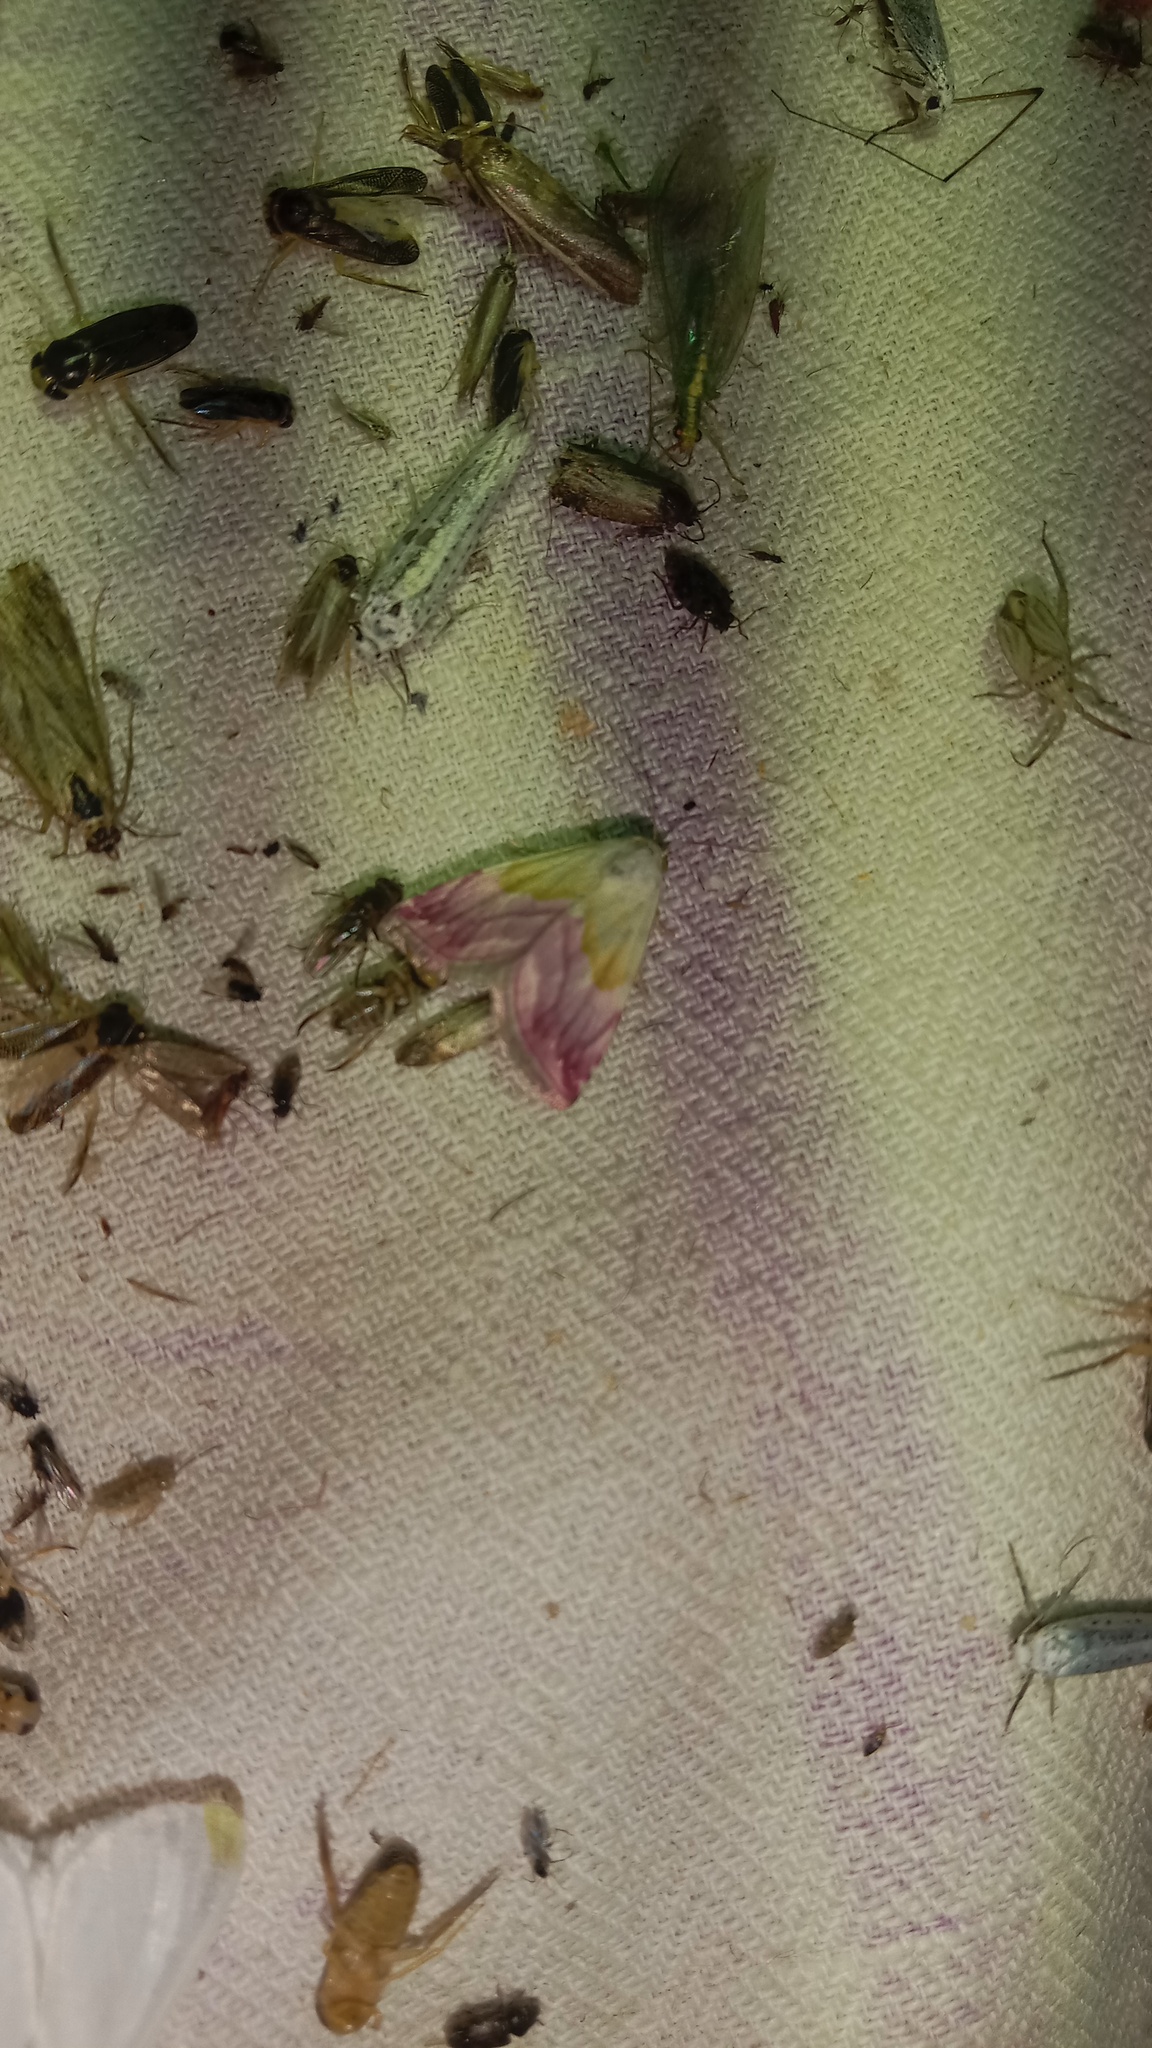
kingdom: Animalia
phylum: Arthropoda
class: Insecta
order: Lepidoptera
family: Noctuidae
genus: Eublemma
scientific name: Eublemma purpurina
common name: Beautiful marbled
